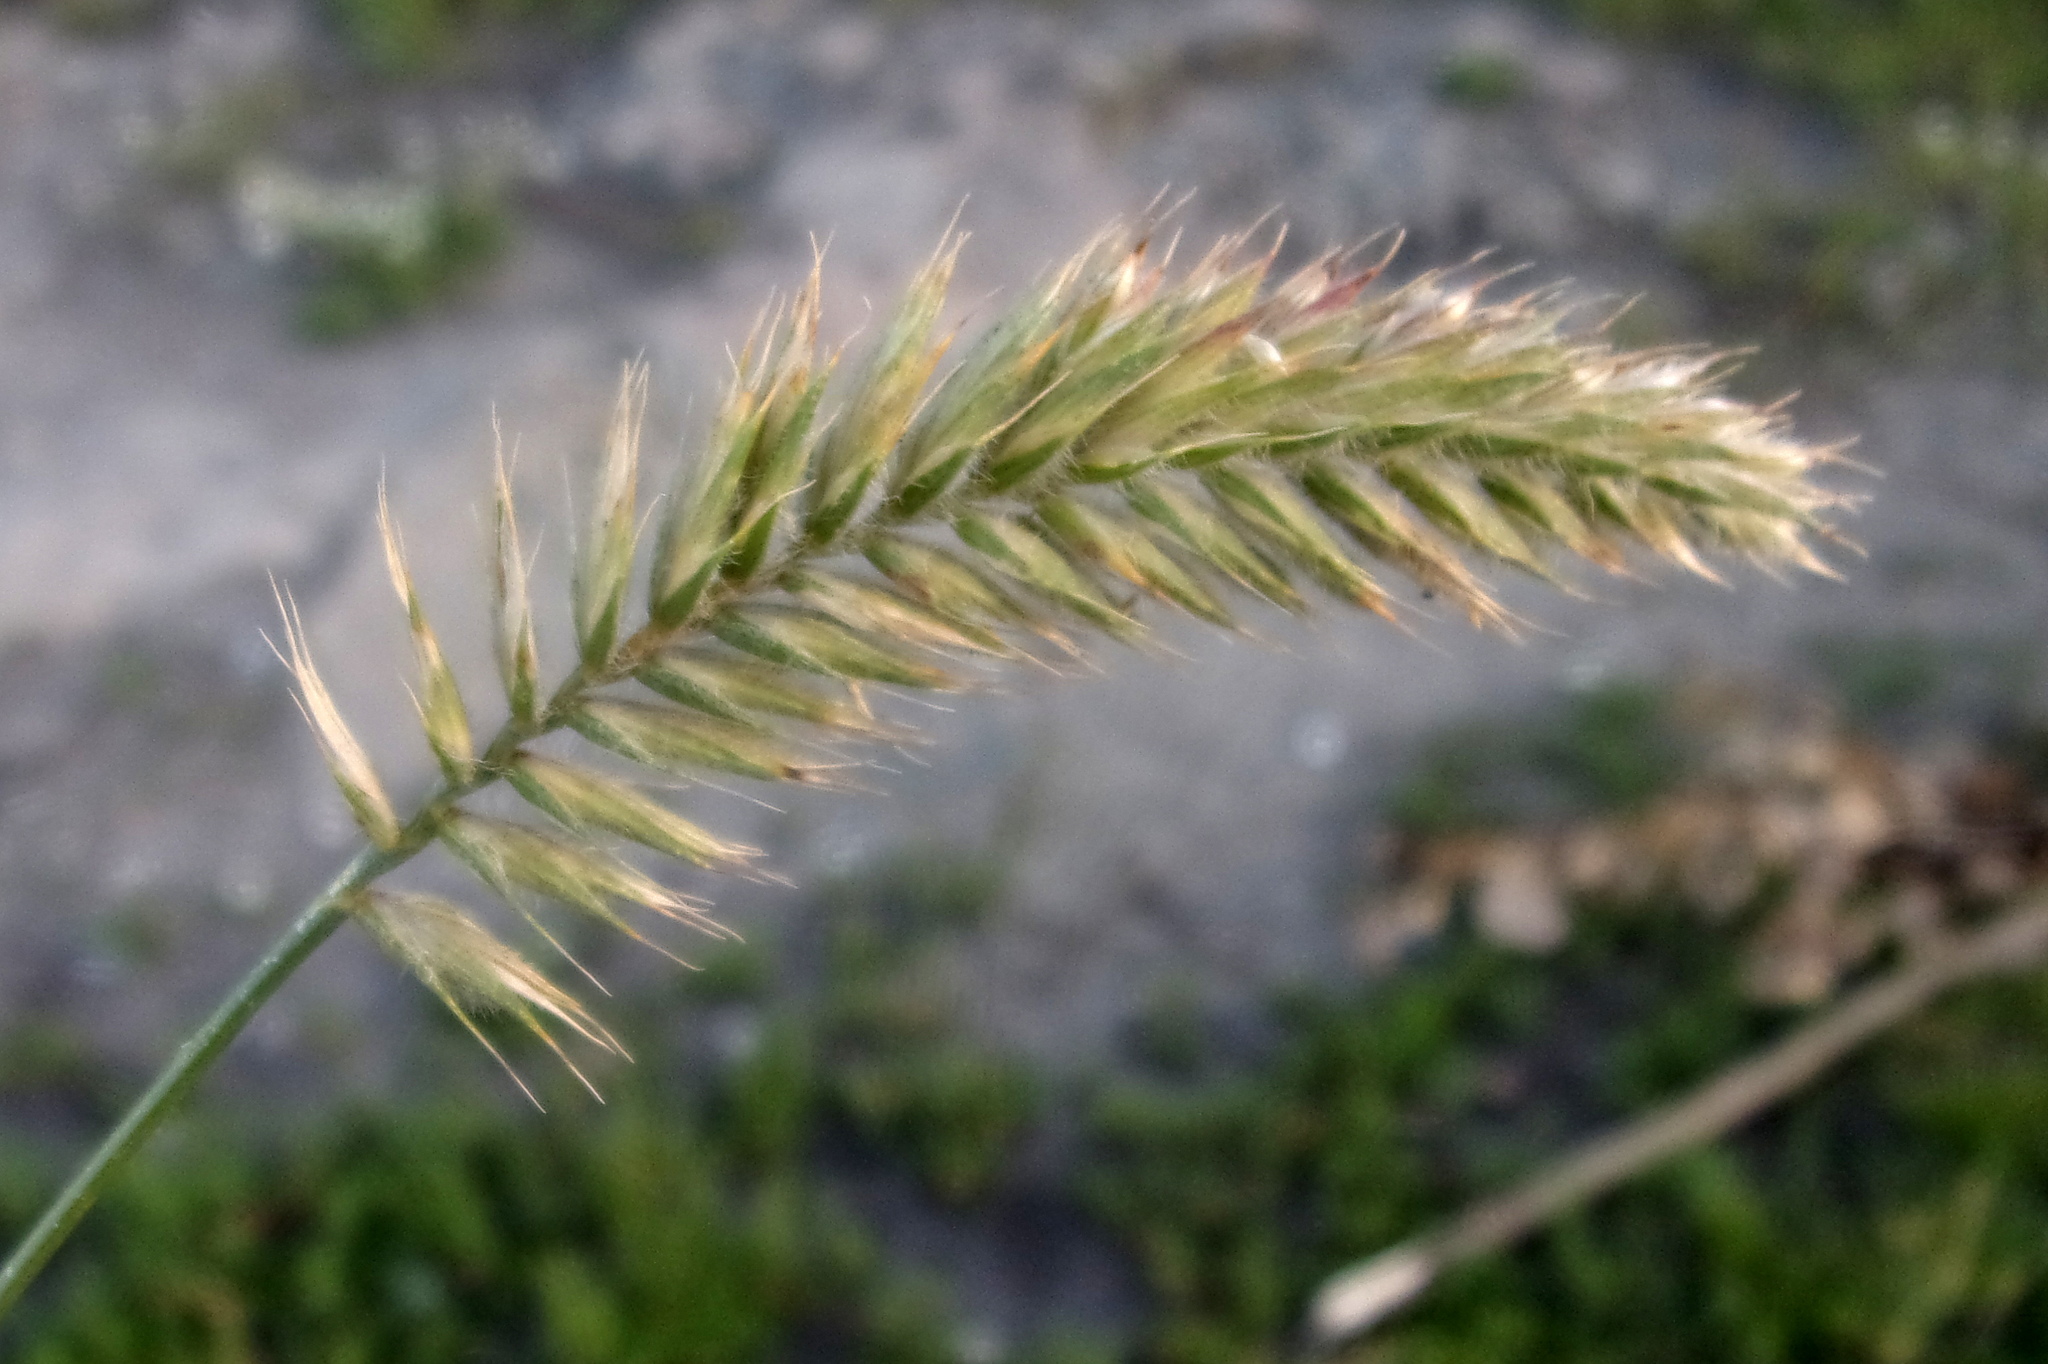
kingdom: Plantae
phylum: Tracheophyta
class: Liliopsida
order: Poales
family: Poaceae
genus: Agropyron
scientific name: Agropyron cristatum
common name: Crested wheatgrass
